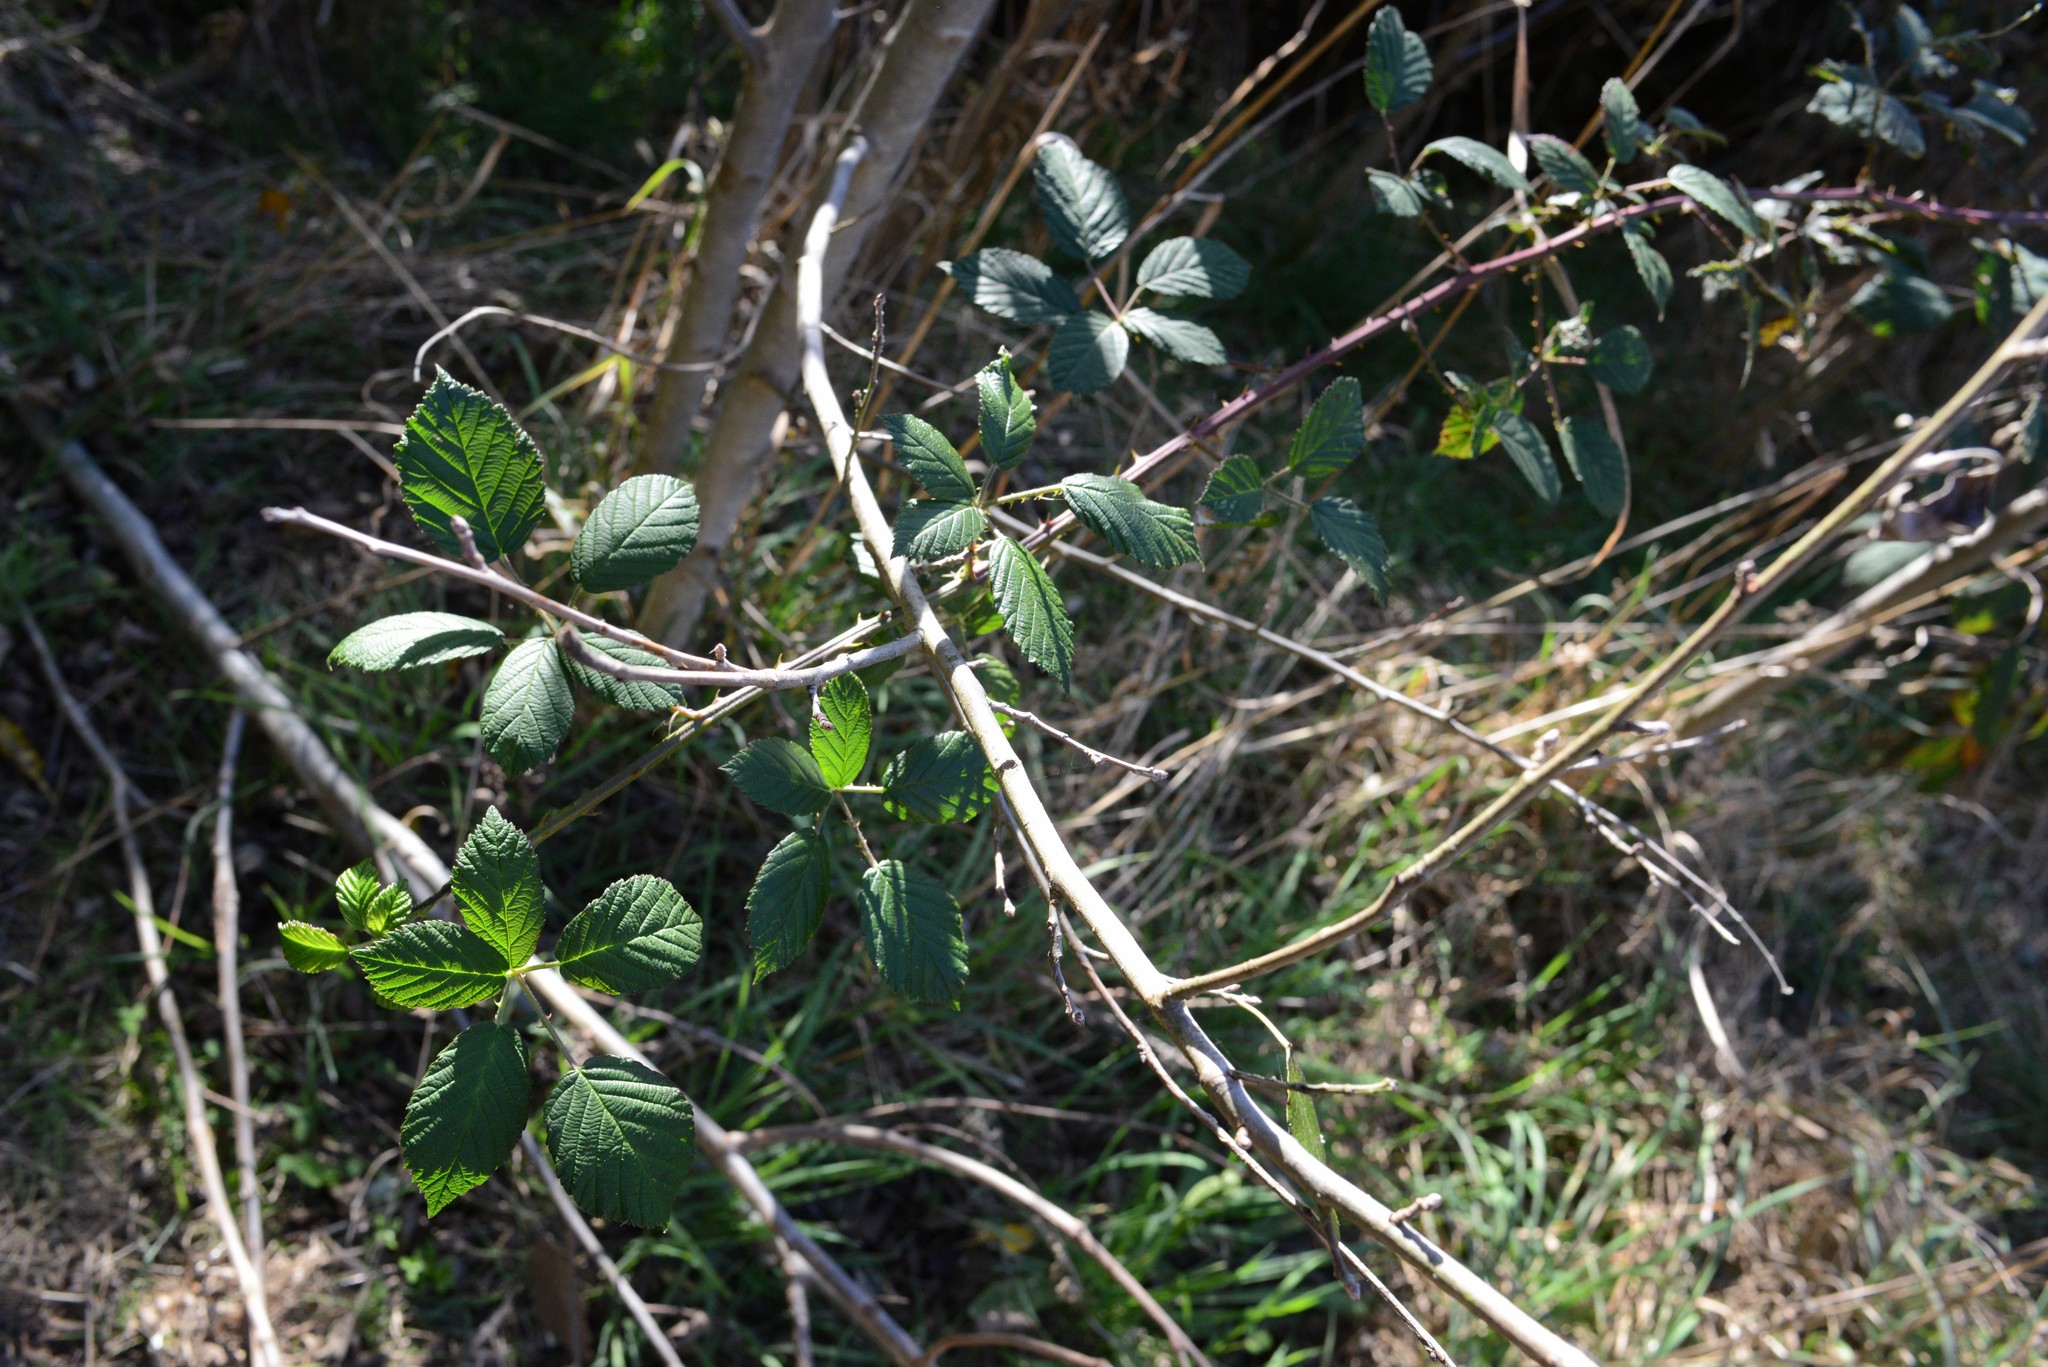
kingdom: Plantae
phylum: Tracheophyta
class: Magnoliopsida
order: Rosales
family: Rosaceae
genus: Rubus
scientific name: Rubus
